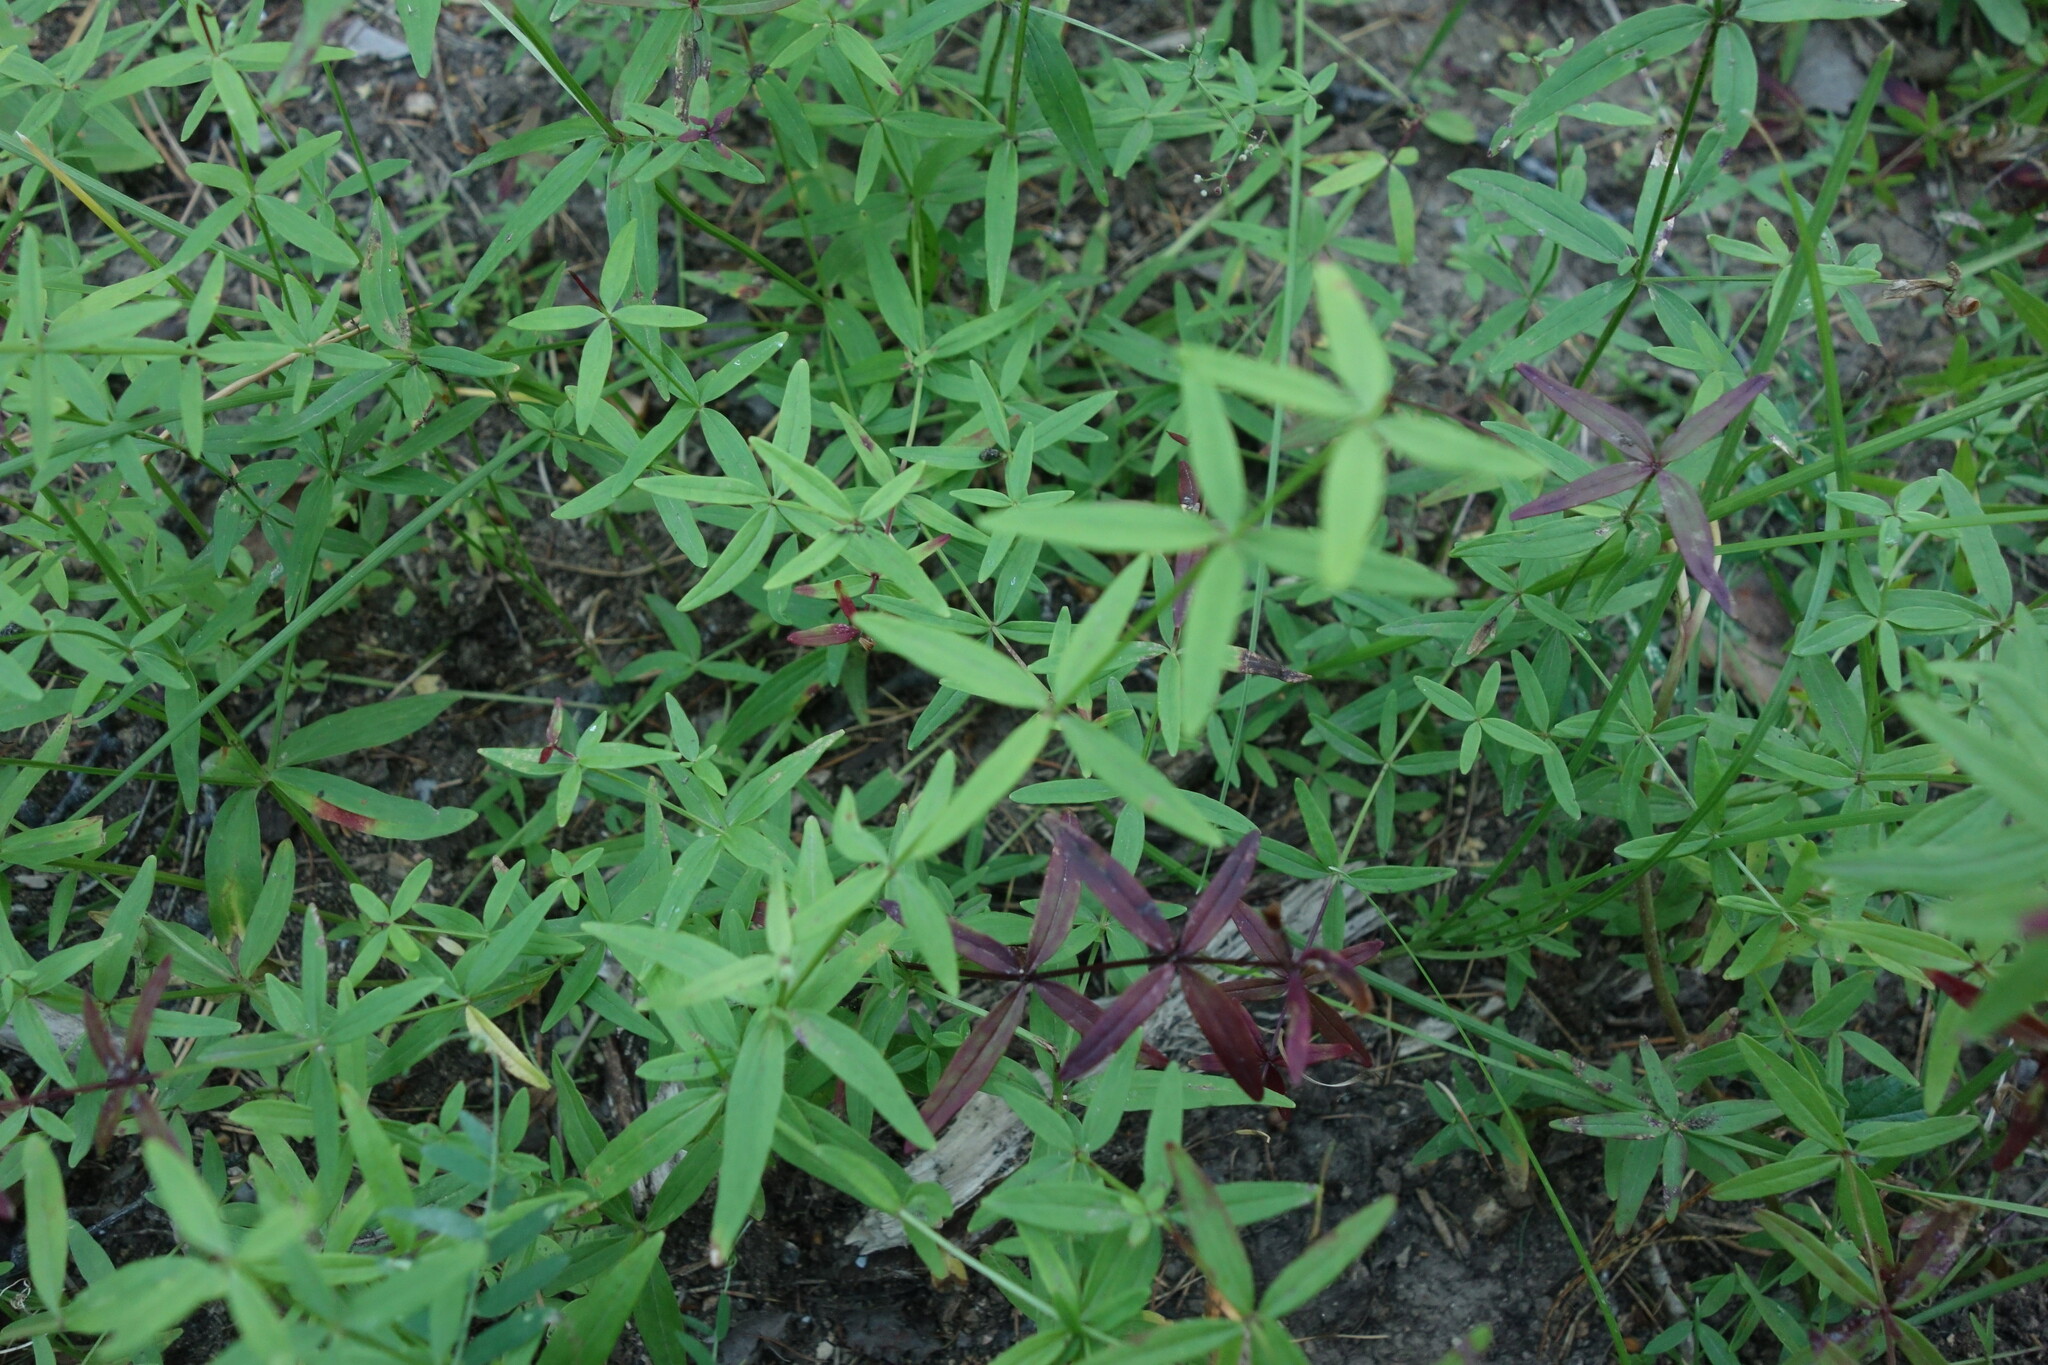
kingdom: Plantae
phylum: Tracheophyta
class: Magnoliopsida
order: Gentianales
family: Rubiaceae
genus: Galium
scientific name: Galium boreale
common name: Northern bedstraw
